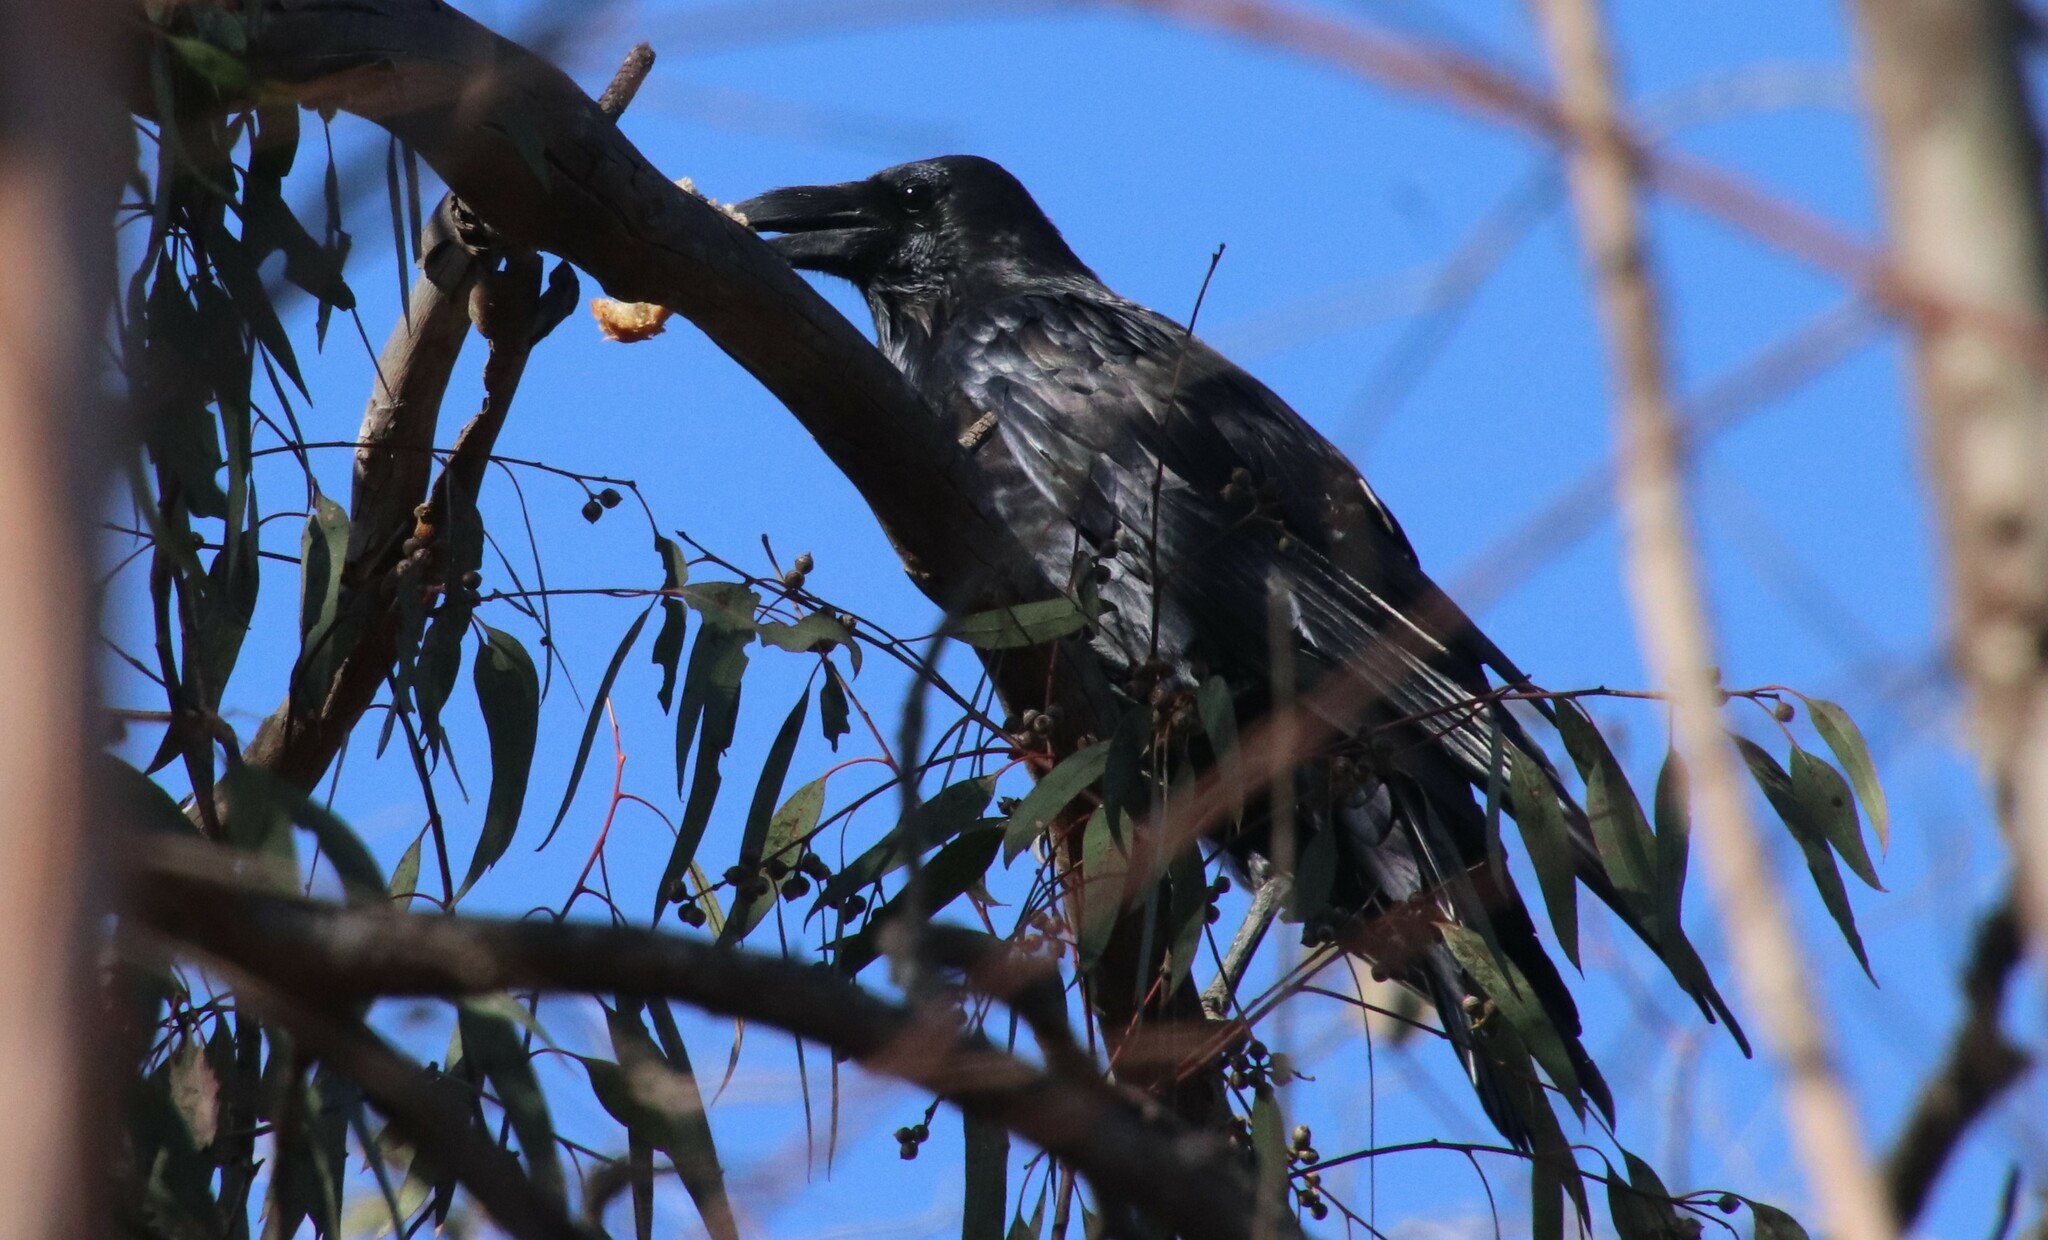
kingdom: Animalia
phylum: Chordata
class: Aves
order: Passeriformes
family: Corvidae
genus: Corvus
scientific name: Corvus corax
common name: Common raven
